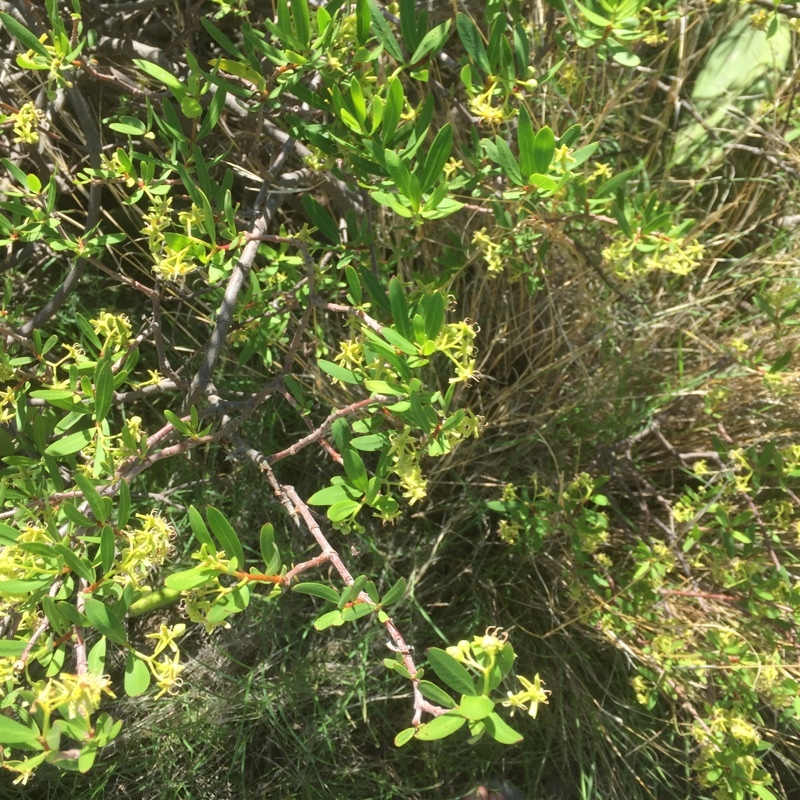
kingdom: Plantae
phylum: Tracheophyta
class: Magnoliopsida
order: Gentianales
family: Apocynaceae
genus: Periploca
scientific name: Periploca laevigata
